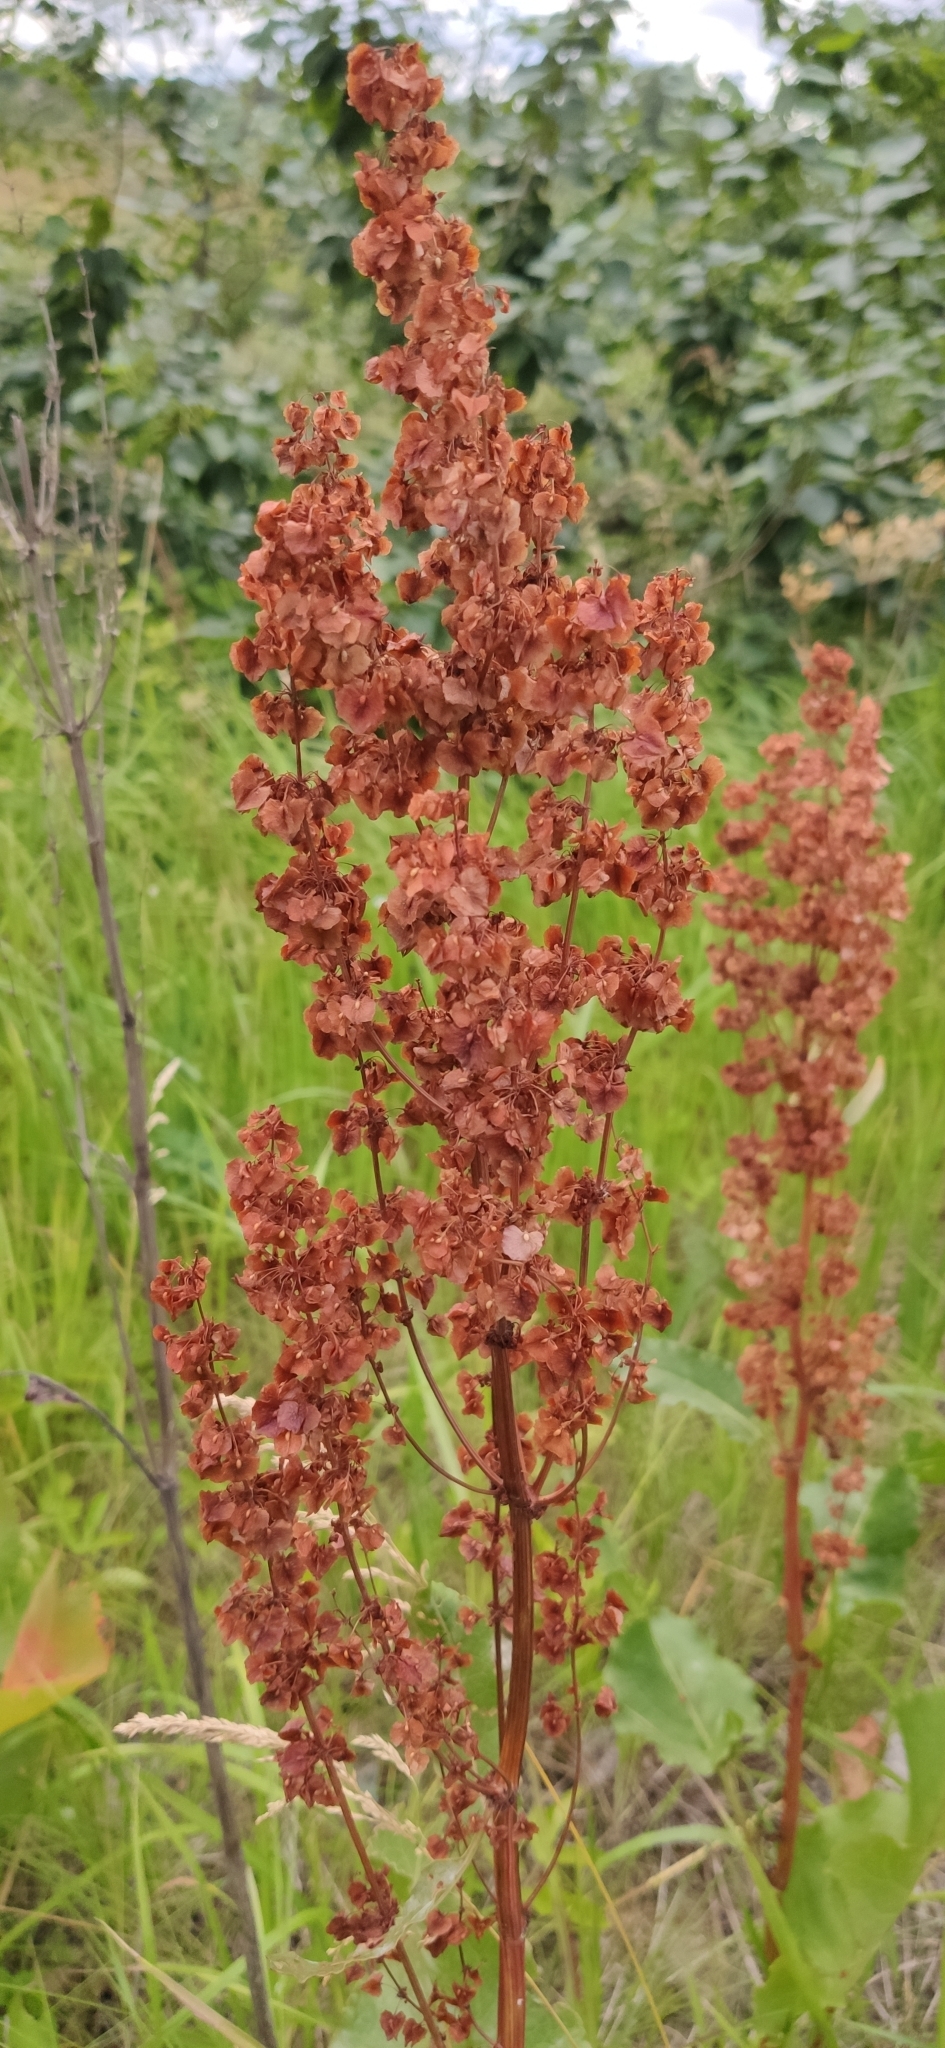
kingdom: Plantae
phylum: Tracheophyta
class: Magnoliopsida
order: Caryophyllales
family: Polygonaceae
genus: Rumex
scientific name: Rumex confertus
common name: Russian dock
